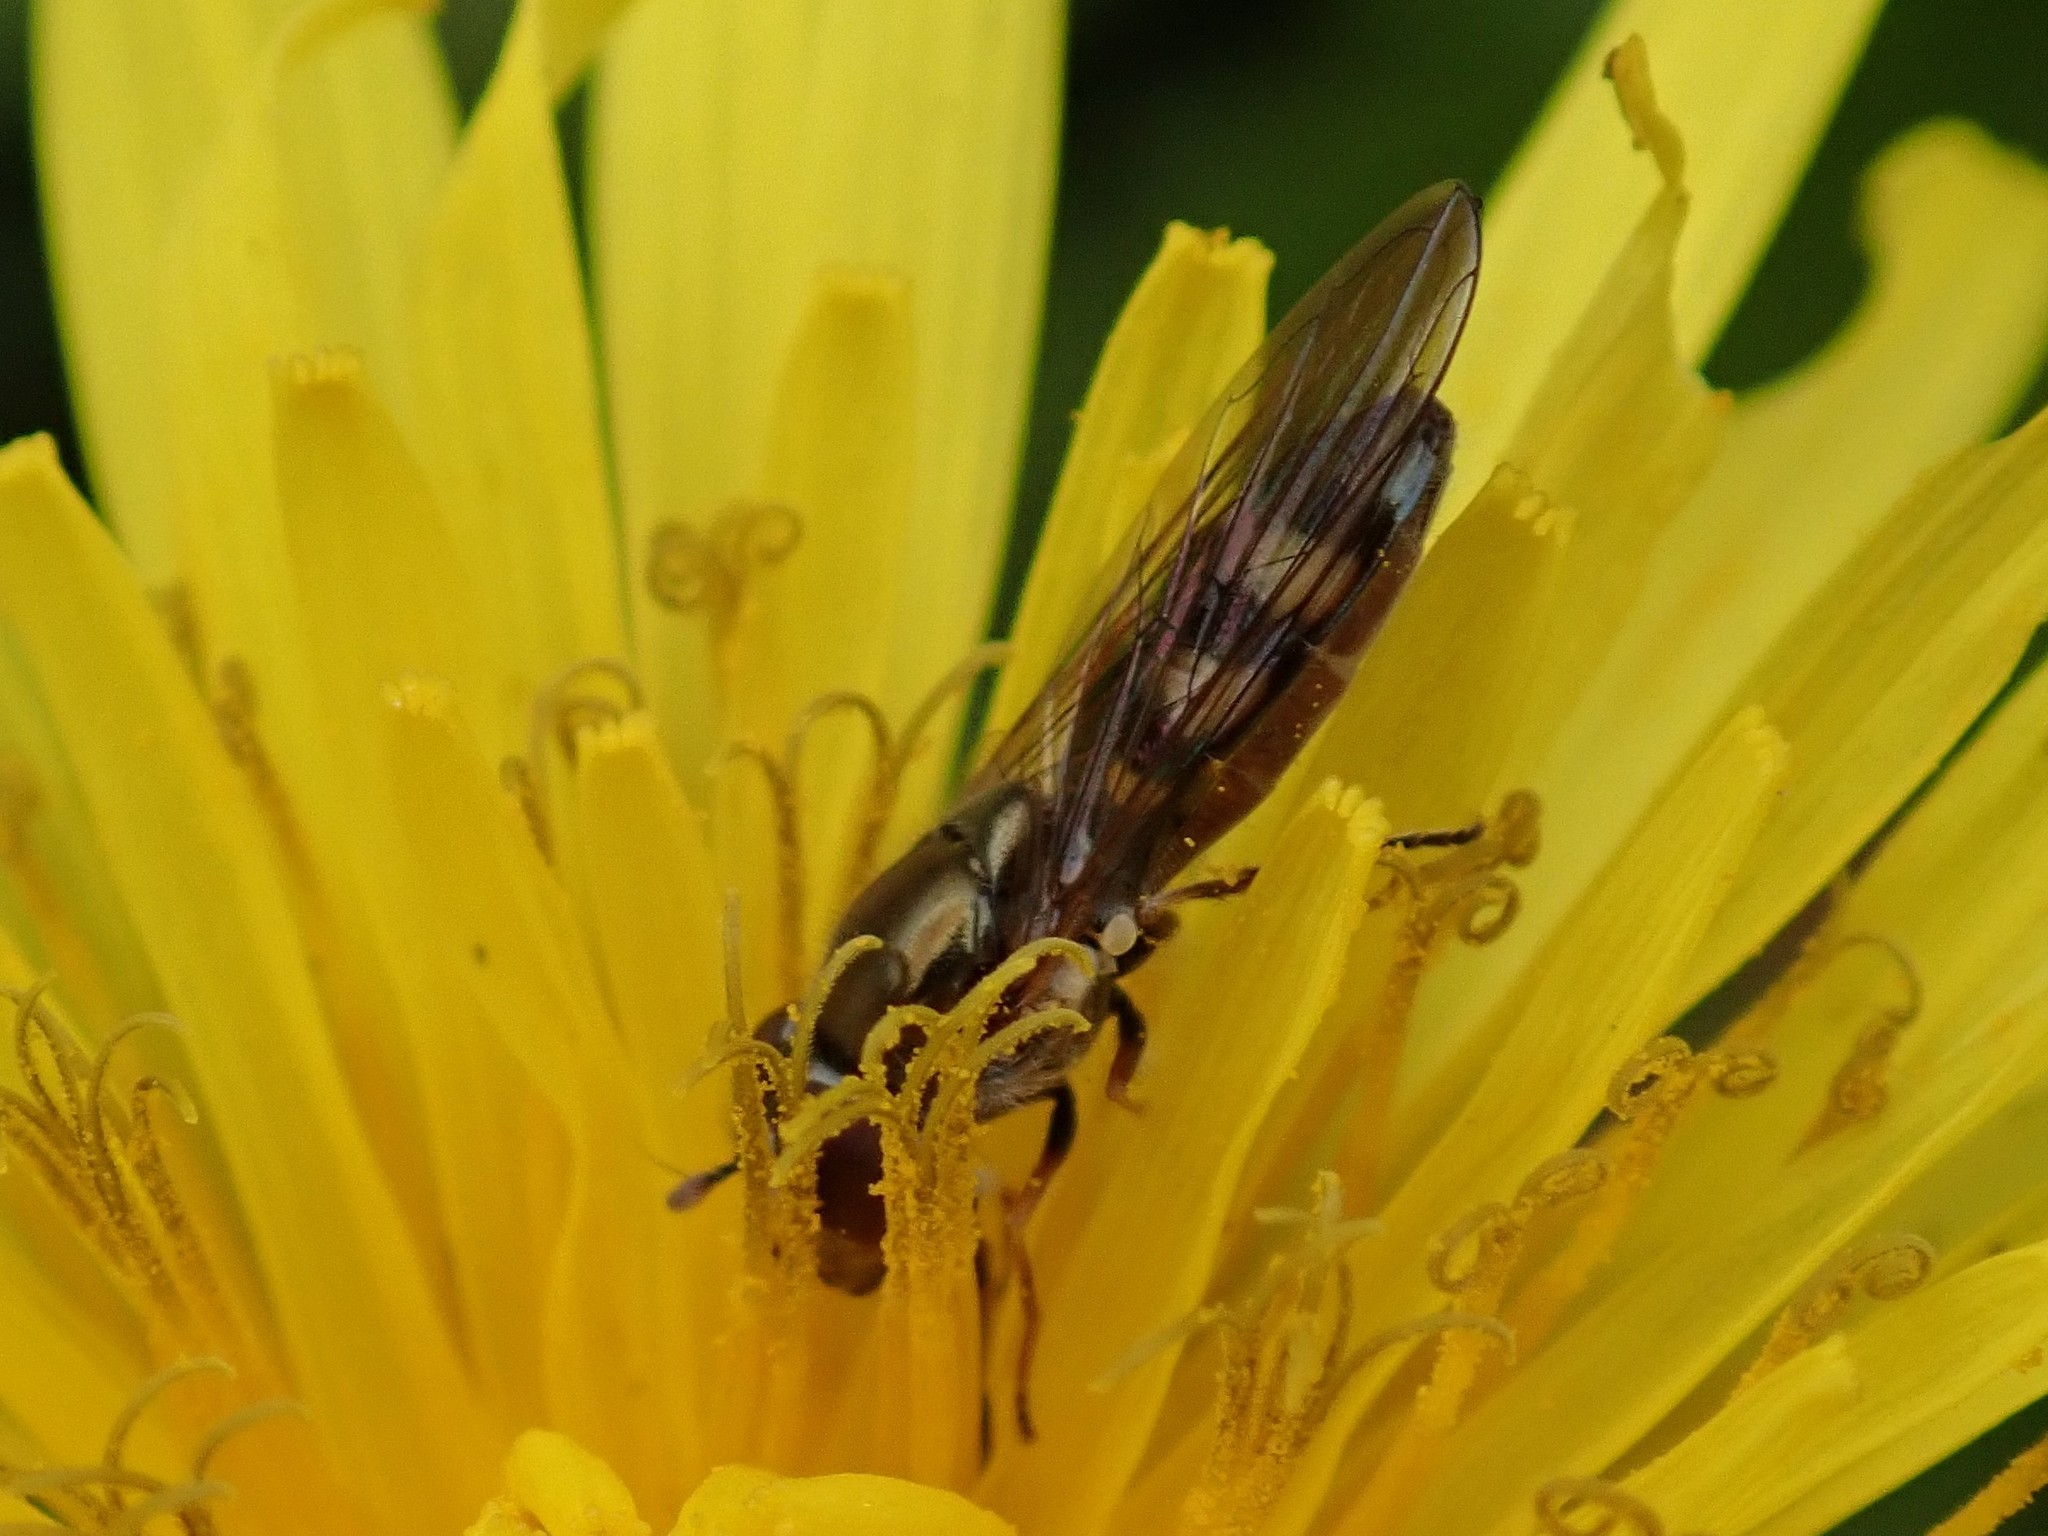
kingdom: Animalia
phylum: Arthropoda
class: Insecta
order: Diptera
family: Syrphidae
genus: Melanostoma
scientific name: Melanostoma mellina
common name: Hover fly
